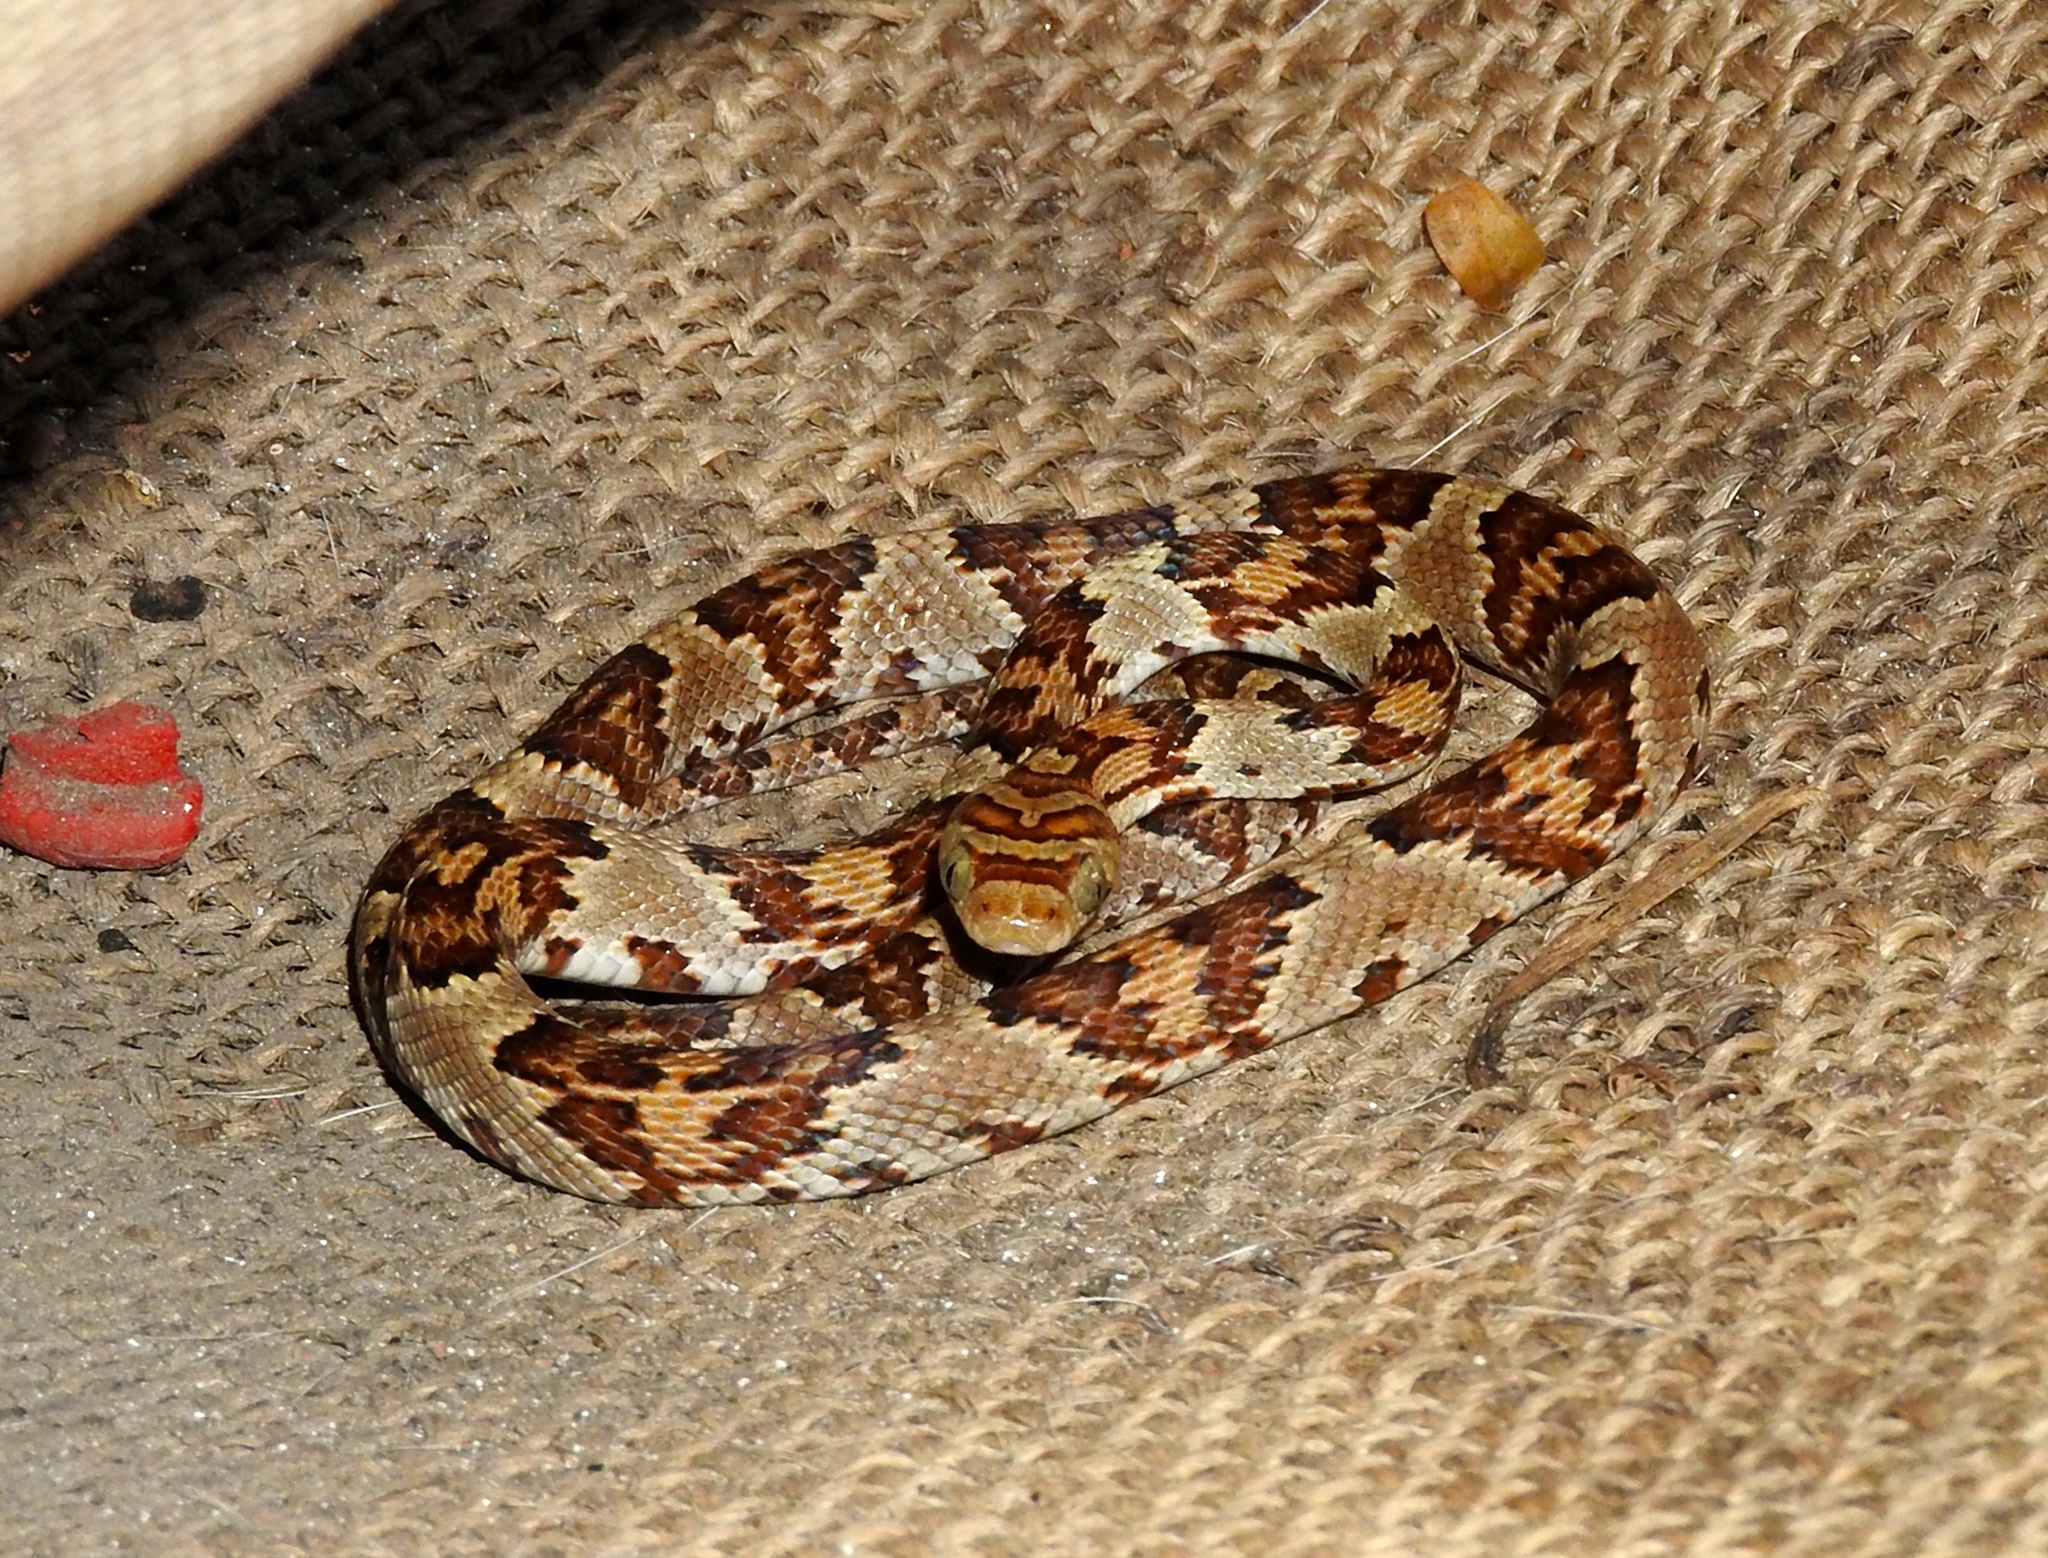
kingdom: Animalia
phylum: Chordata
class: Squamata
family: Colubridae
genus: Trimorphodon
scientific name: Trimorphodon paucimaculatus
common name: Sinaloan lyresnake
